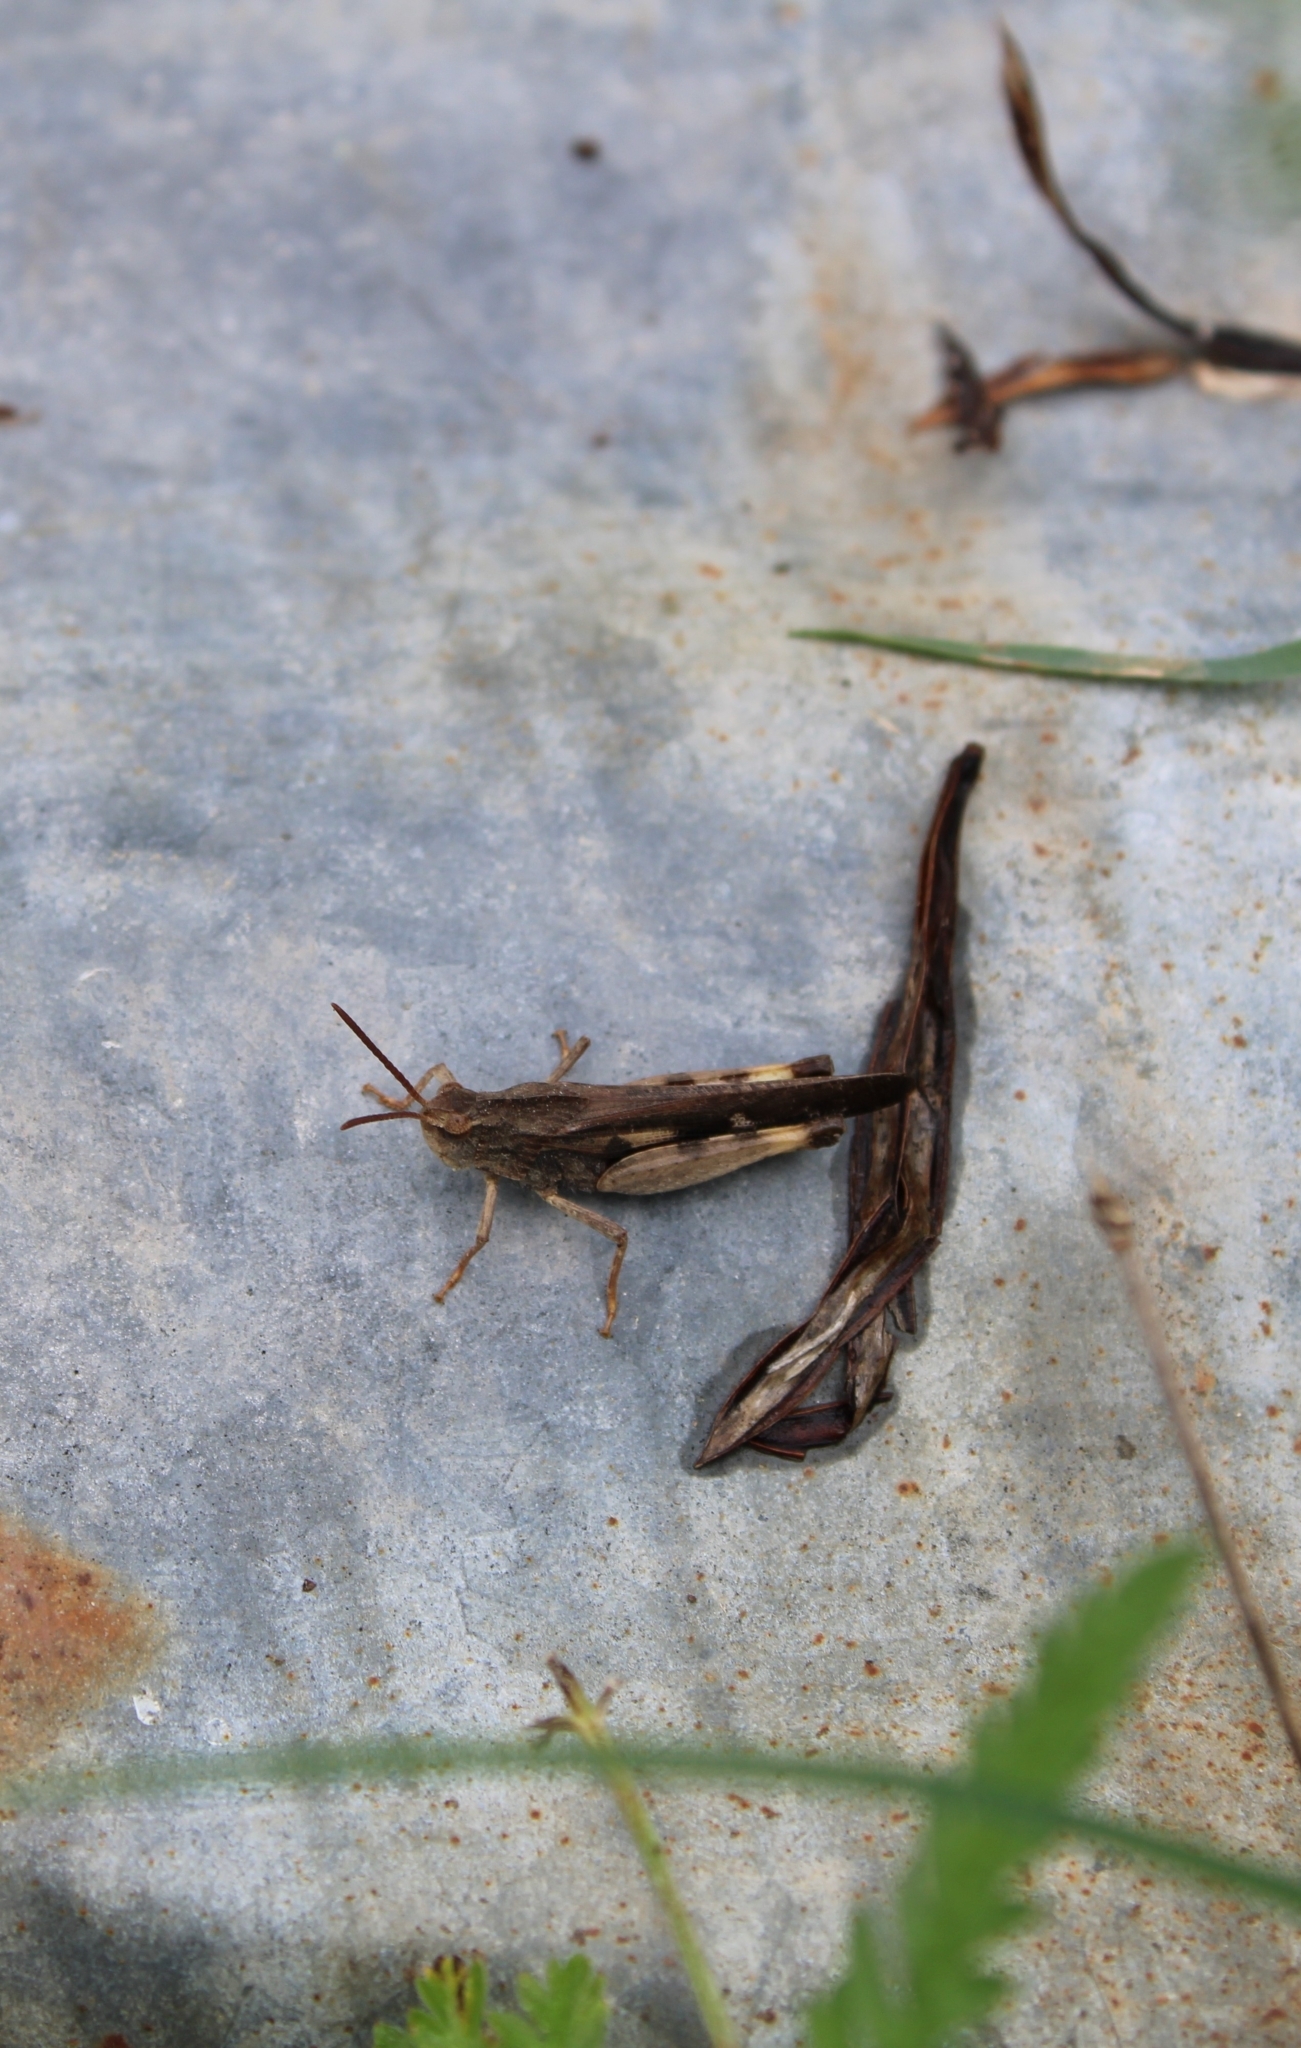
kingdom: Animalia
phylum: Arthropoda
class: Insecta
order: Orthoptera
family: Acrididae
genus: Chortophaga
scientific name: Chortophaga viridifasciata
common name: Green-striped grasshopper
